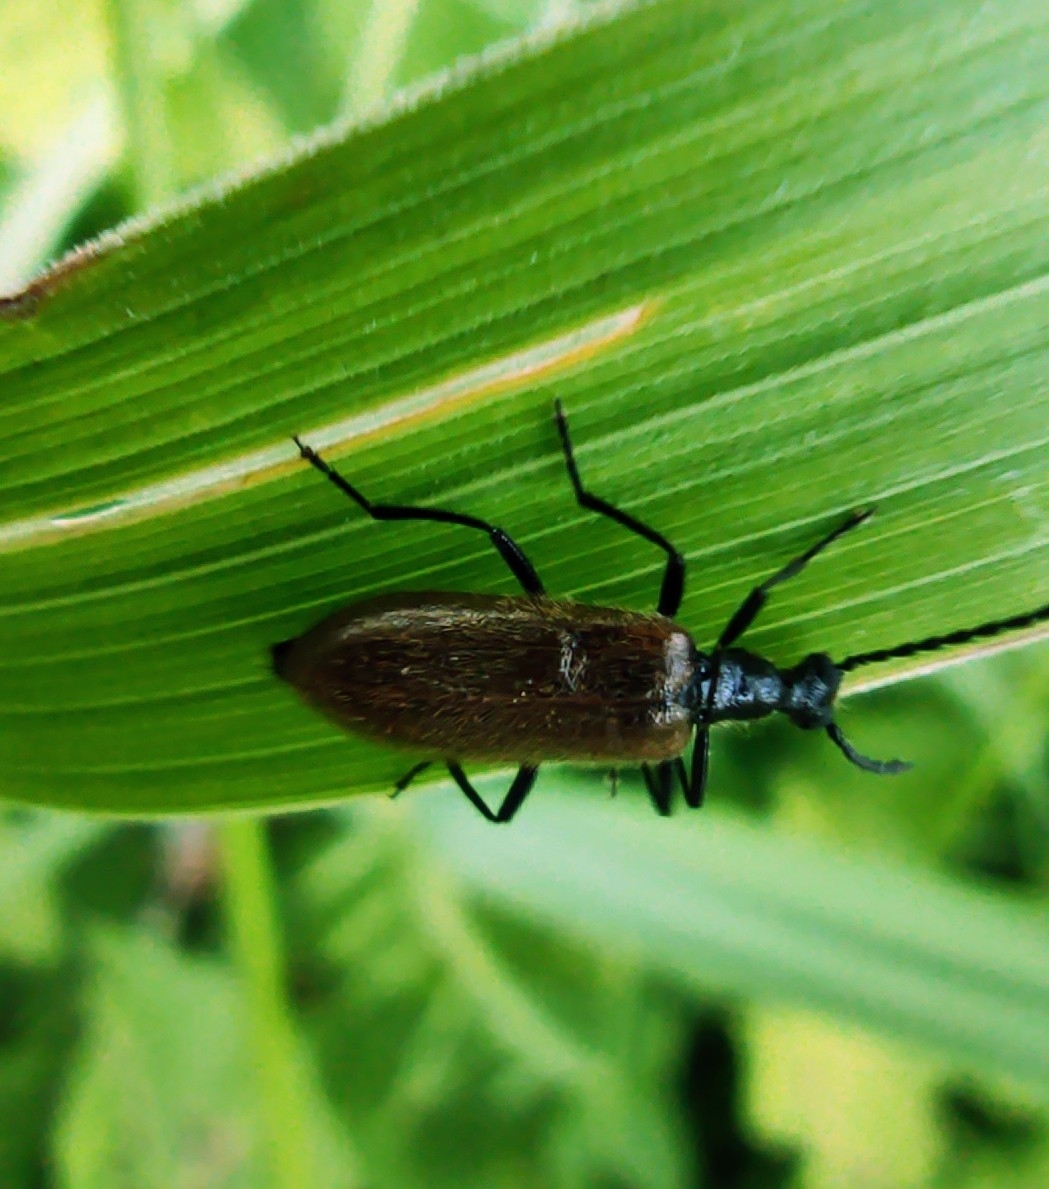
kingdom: Animalia
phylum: Arthropoda
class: Insecta
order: Coleoptera
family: Tenebrionidae
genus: Lagria
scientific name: Lagria hirta
